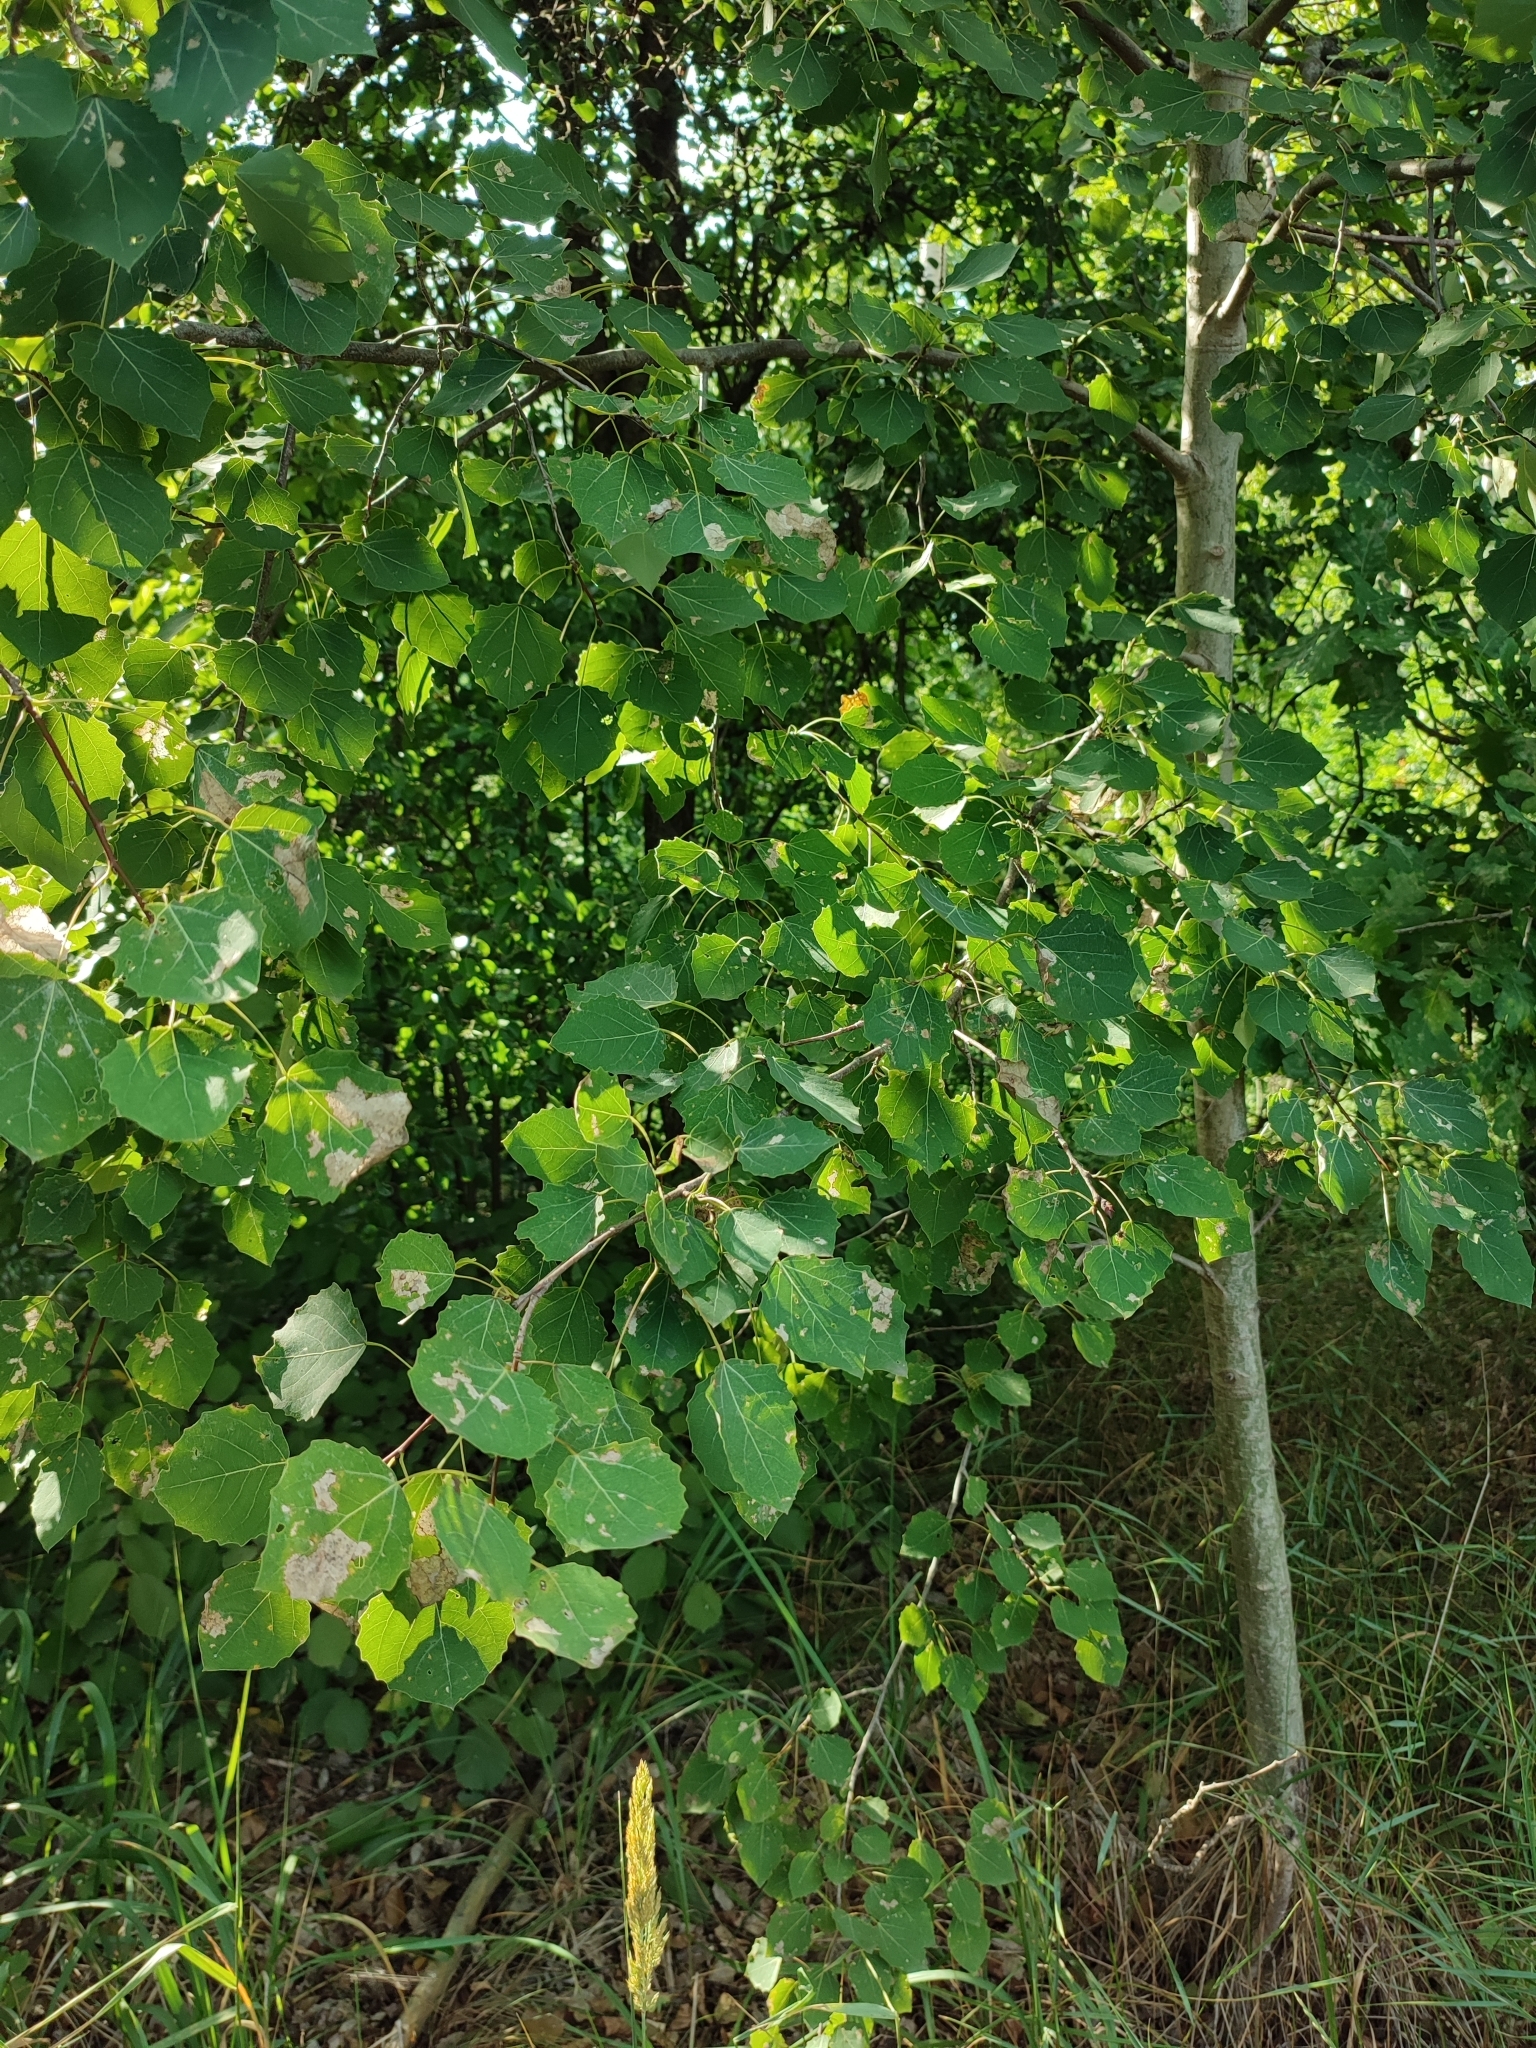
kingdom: Plantae
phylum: Tracheophyta
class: Magnoliopsida
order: Malpighiales
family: Salicaceae
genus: Populus
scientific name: Populus tremula
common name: European aspen
